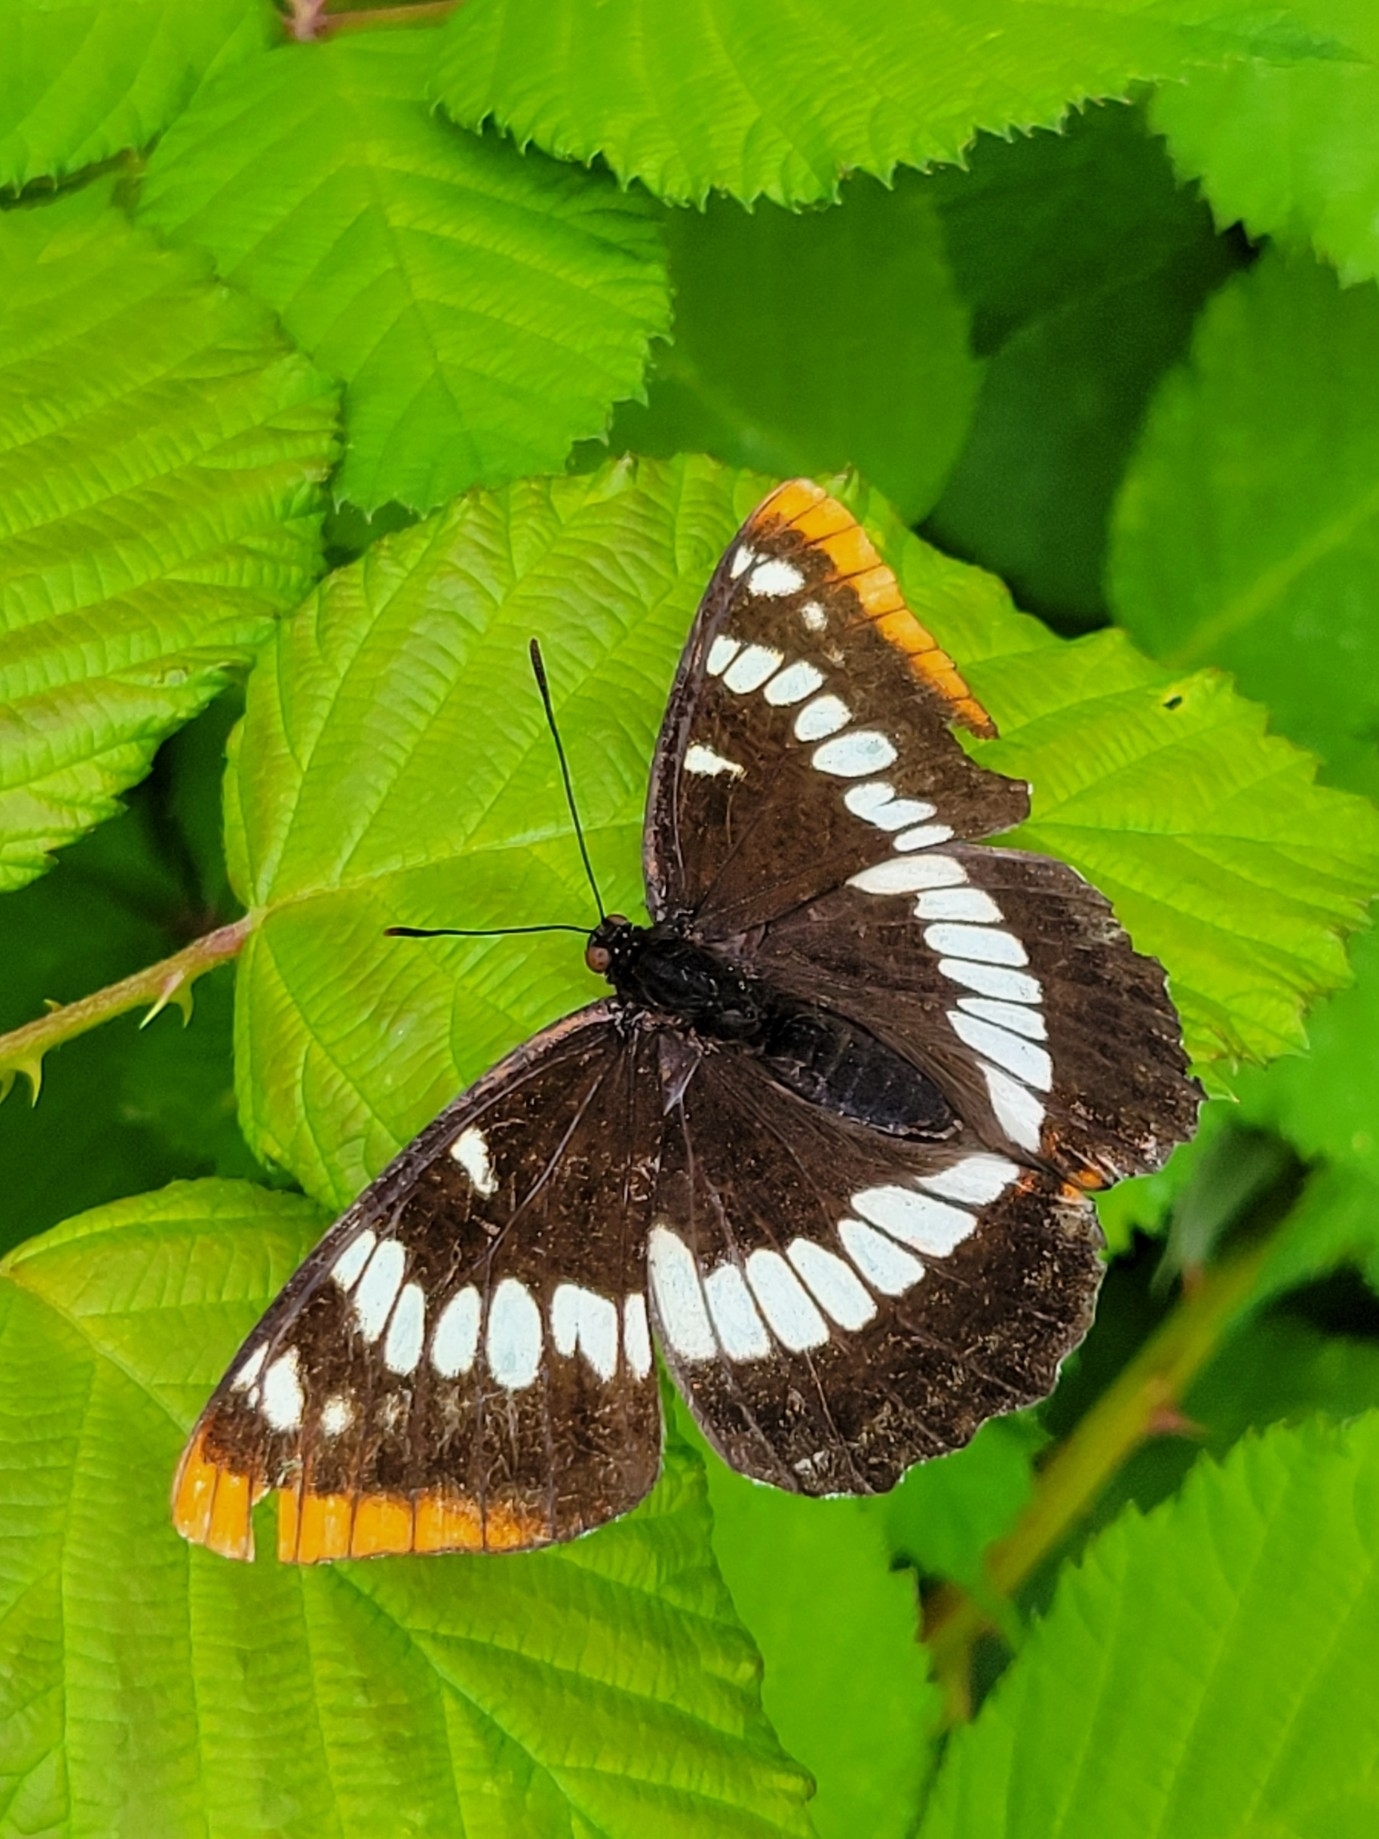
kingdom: Animalia
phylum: Arthropoda
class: Insecta
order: Lepidoptera
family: Nymphalidae
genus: Limenitis
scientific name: Limenitis lorquini
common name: Lorquin's admiral
